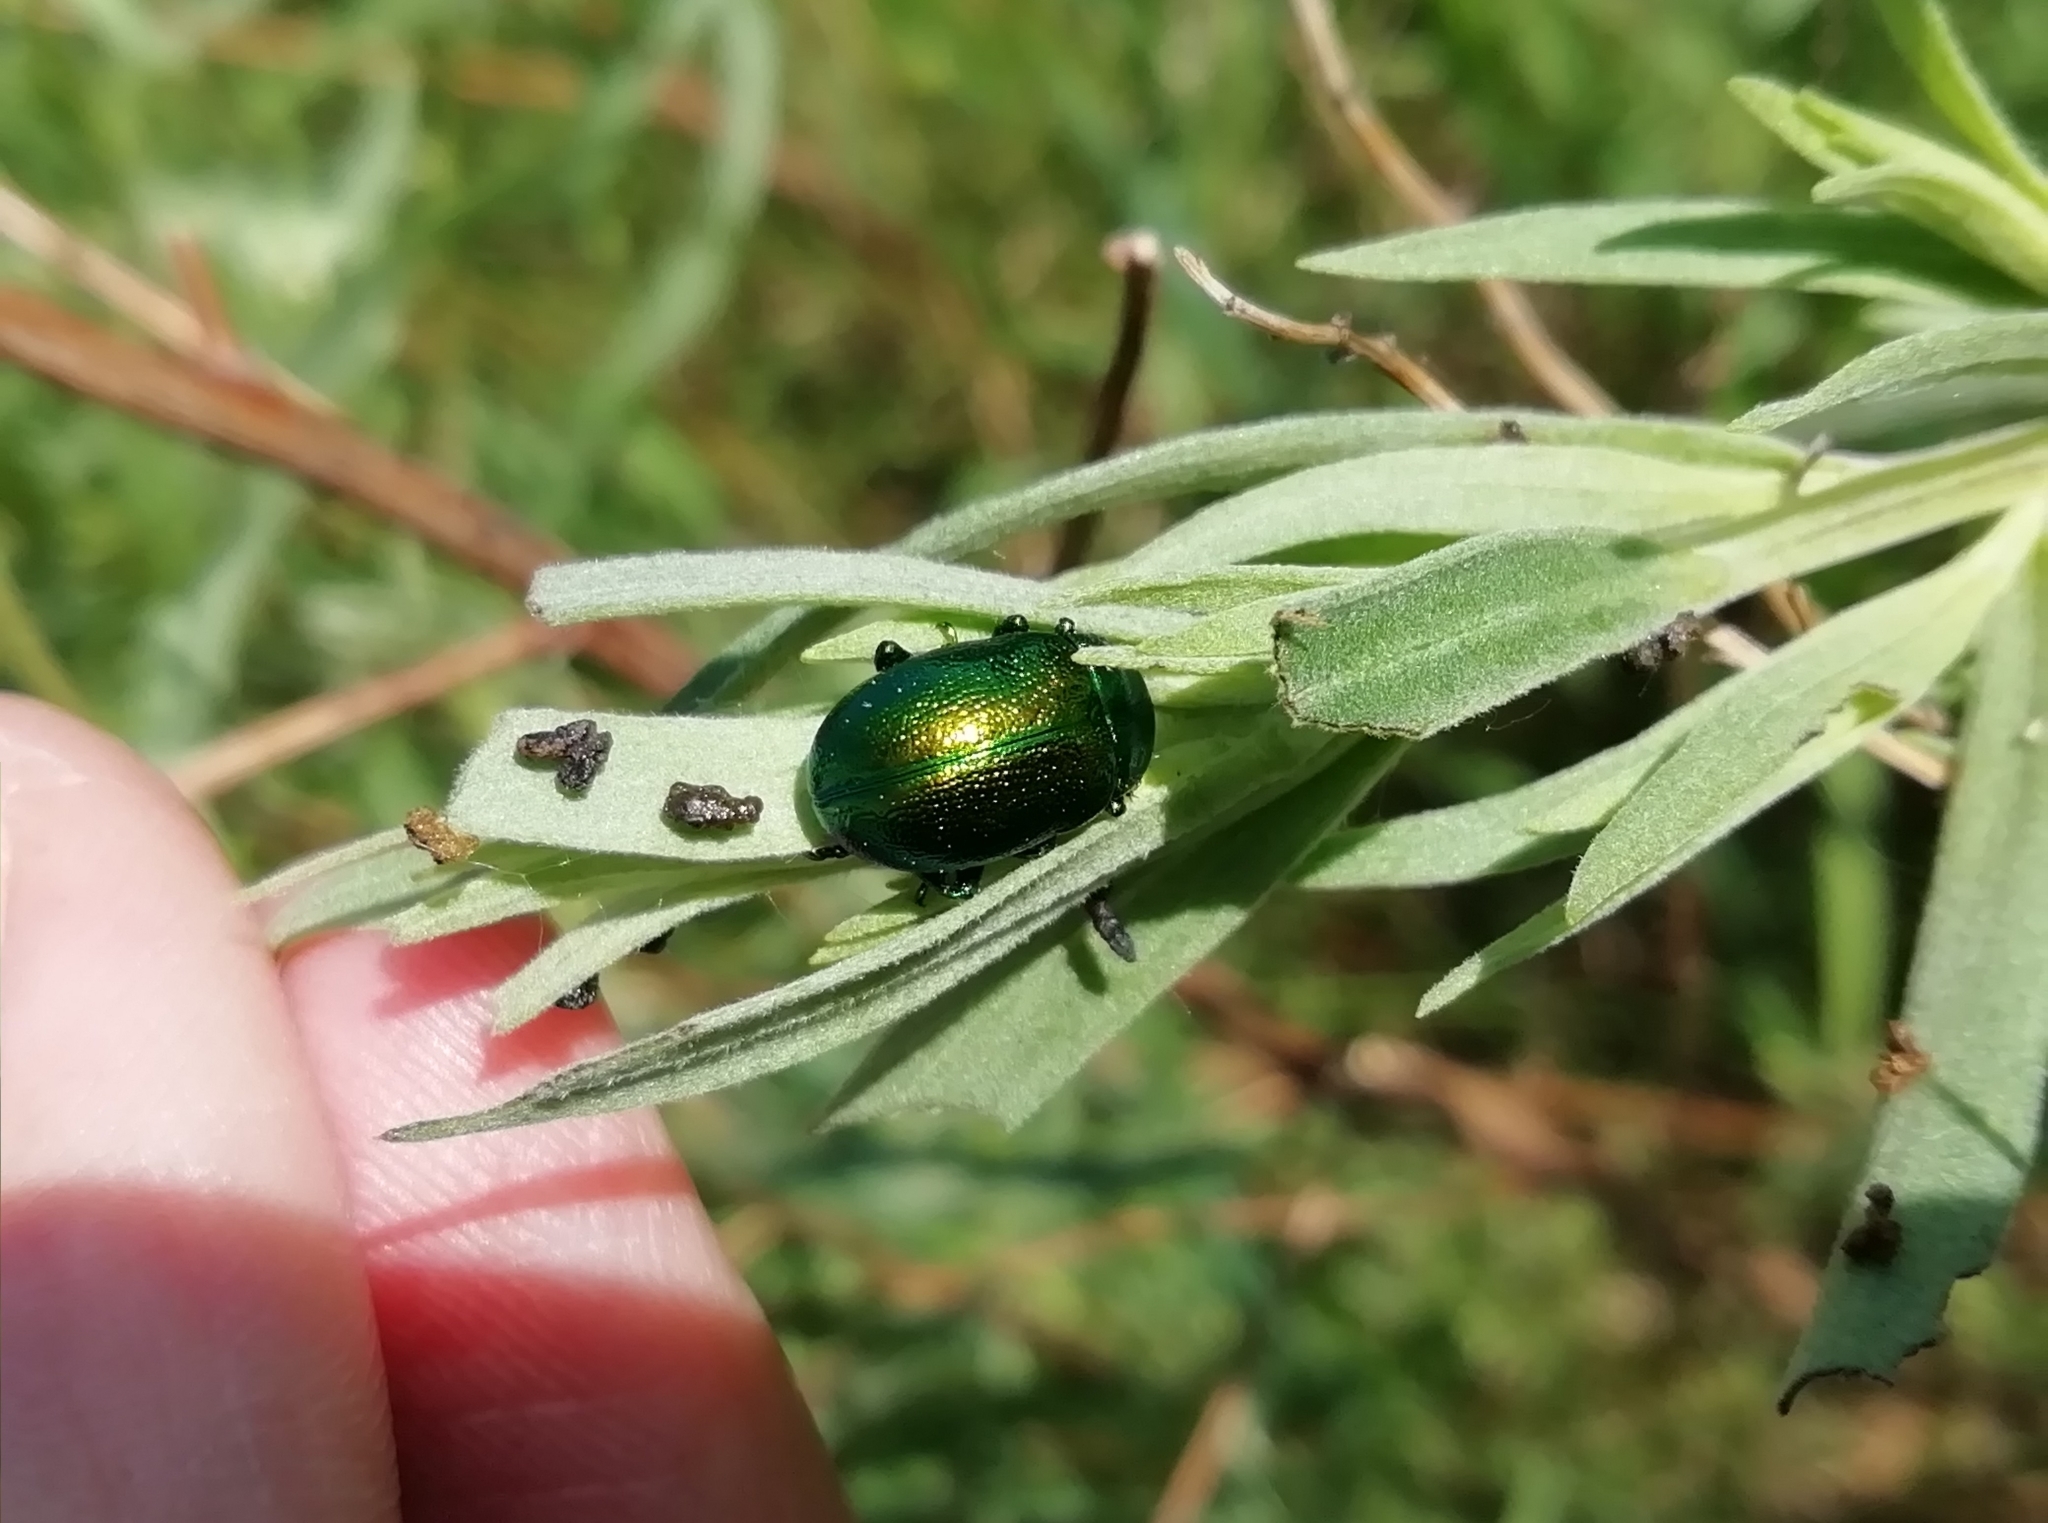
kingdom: Animalia
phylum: Arthropoda
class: Insecta
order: Coleoptera
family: Chrysomelidae
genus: Chrysolina
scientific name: Chrysolina graminis
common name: Tansey beetle
